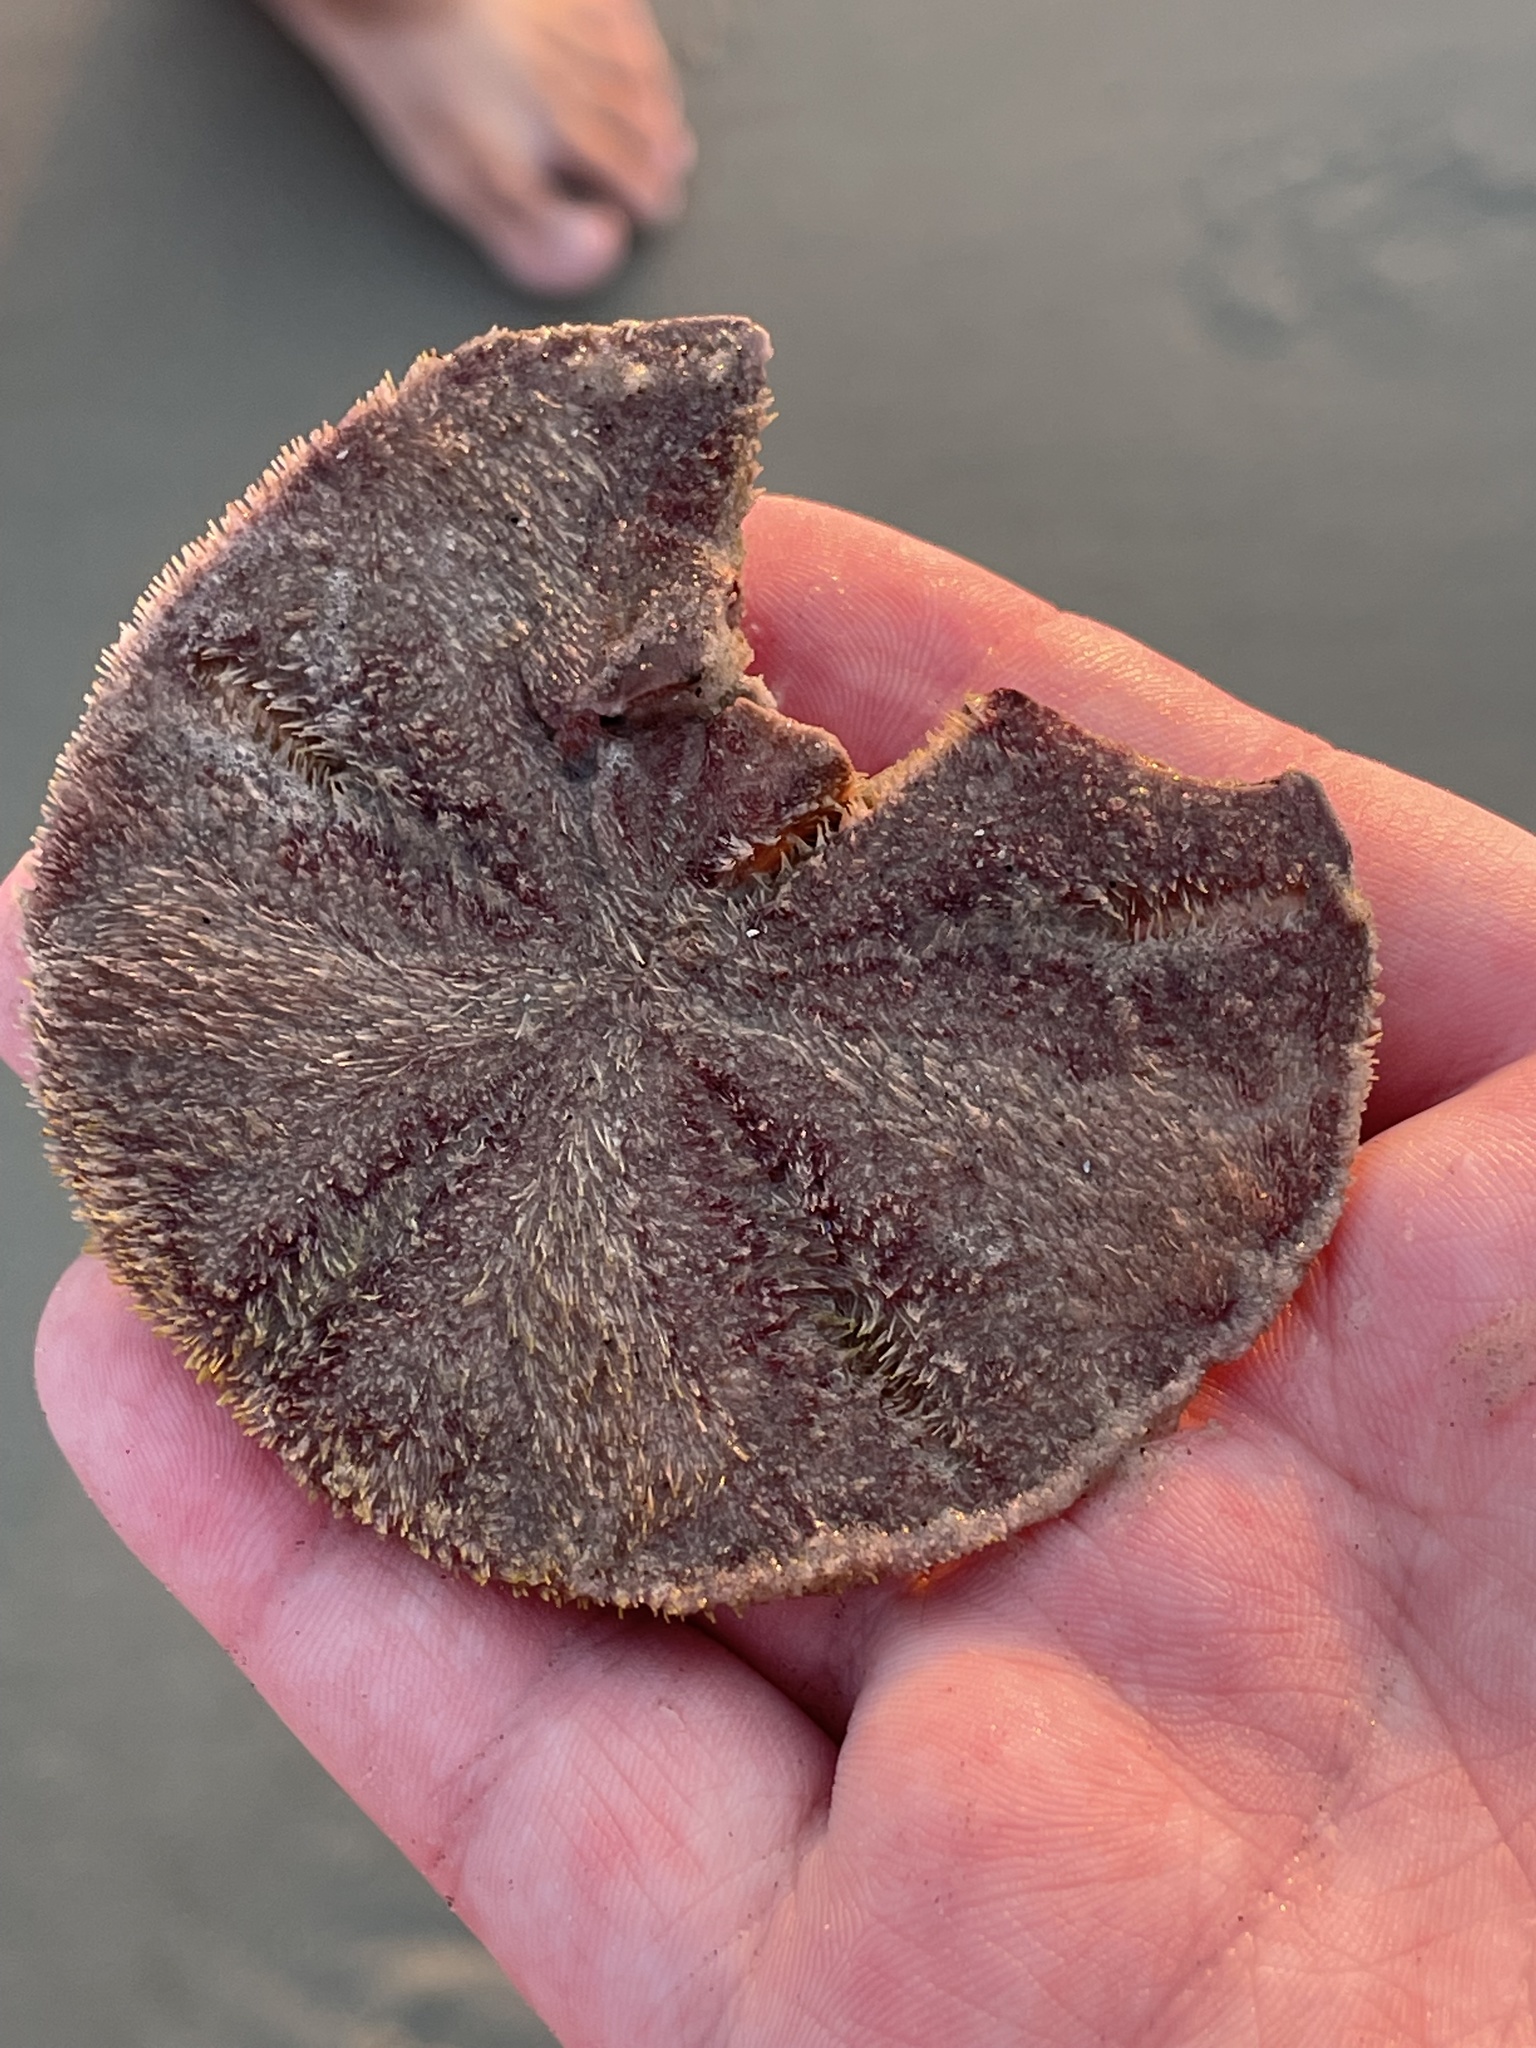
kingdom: Animalia
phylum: Echinodermata
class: Echinoidea
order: Echinolampadacea
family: Mellitidae
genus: Mellita
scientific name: Mellita quinquiesperforata
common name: Sand dollar
